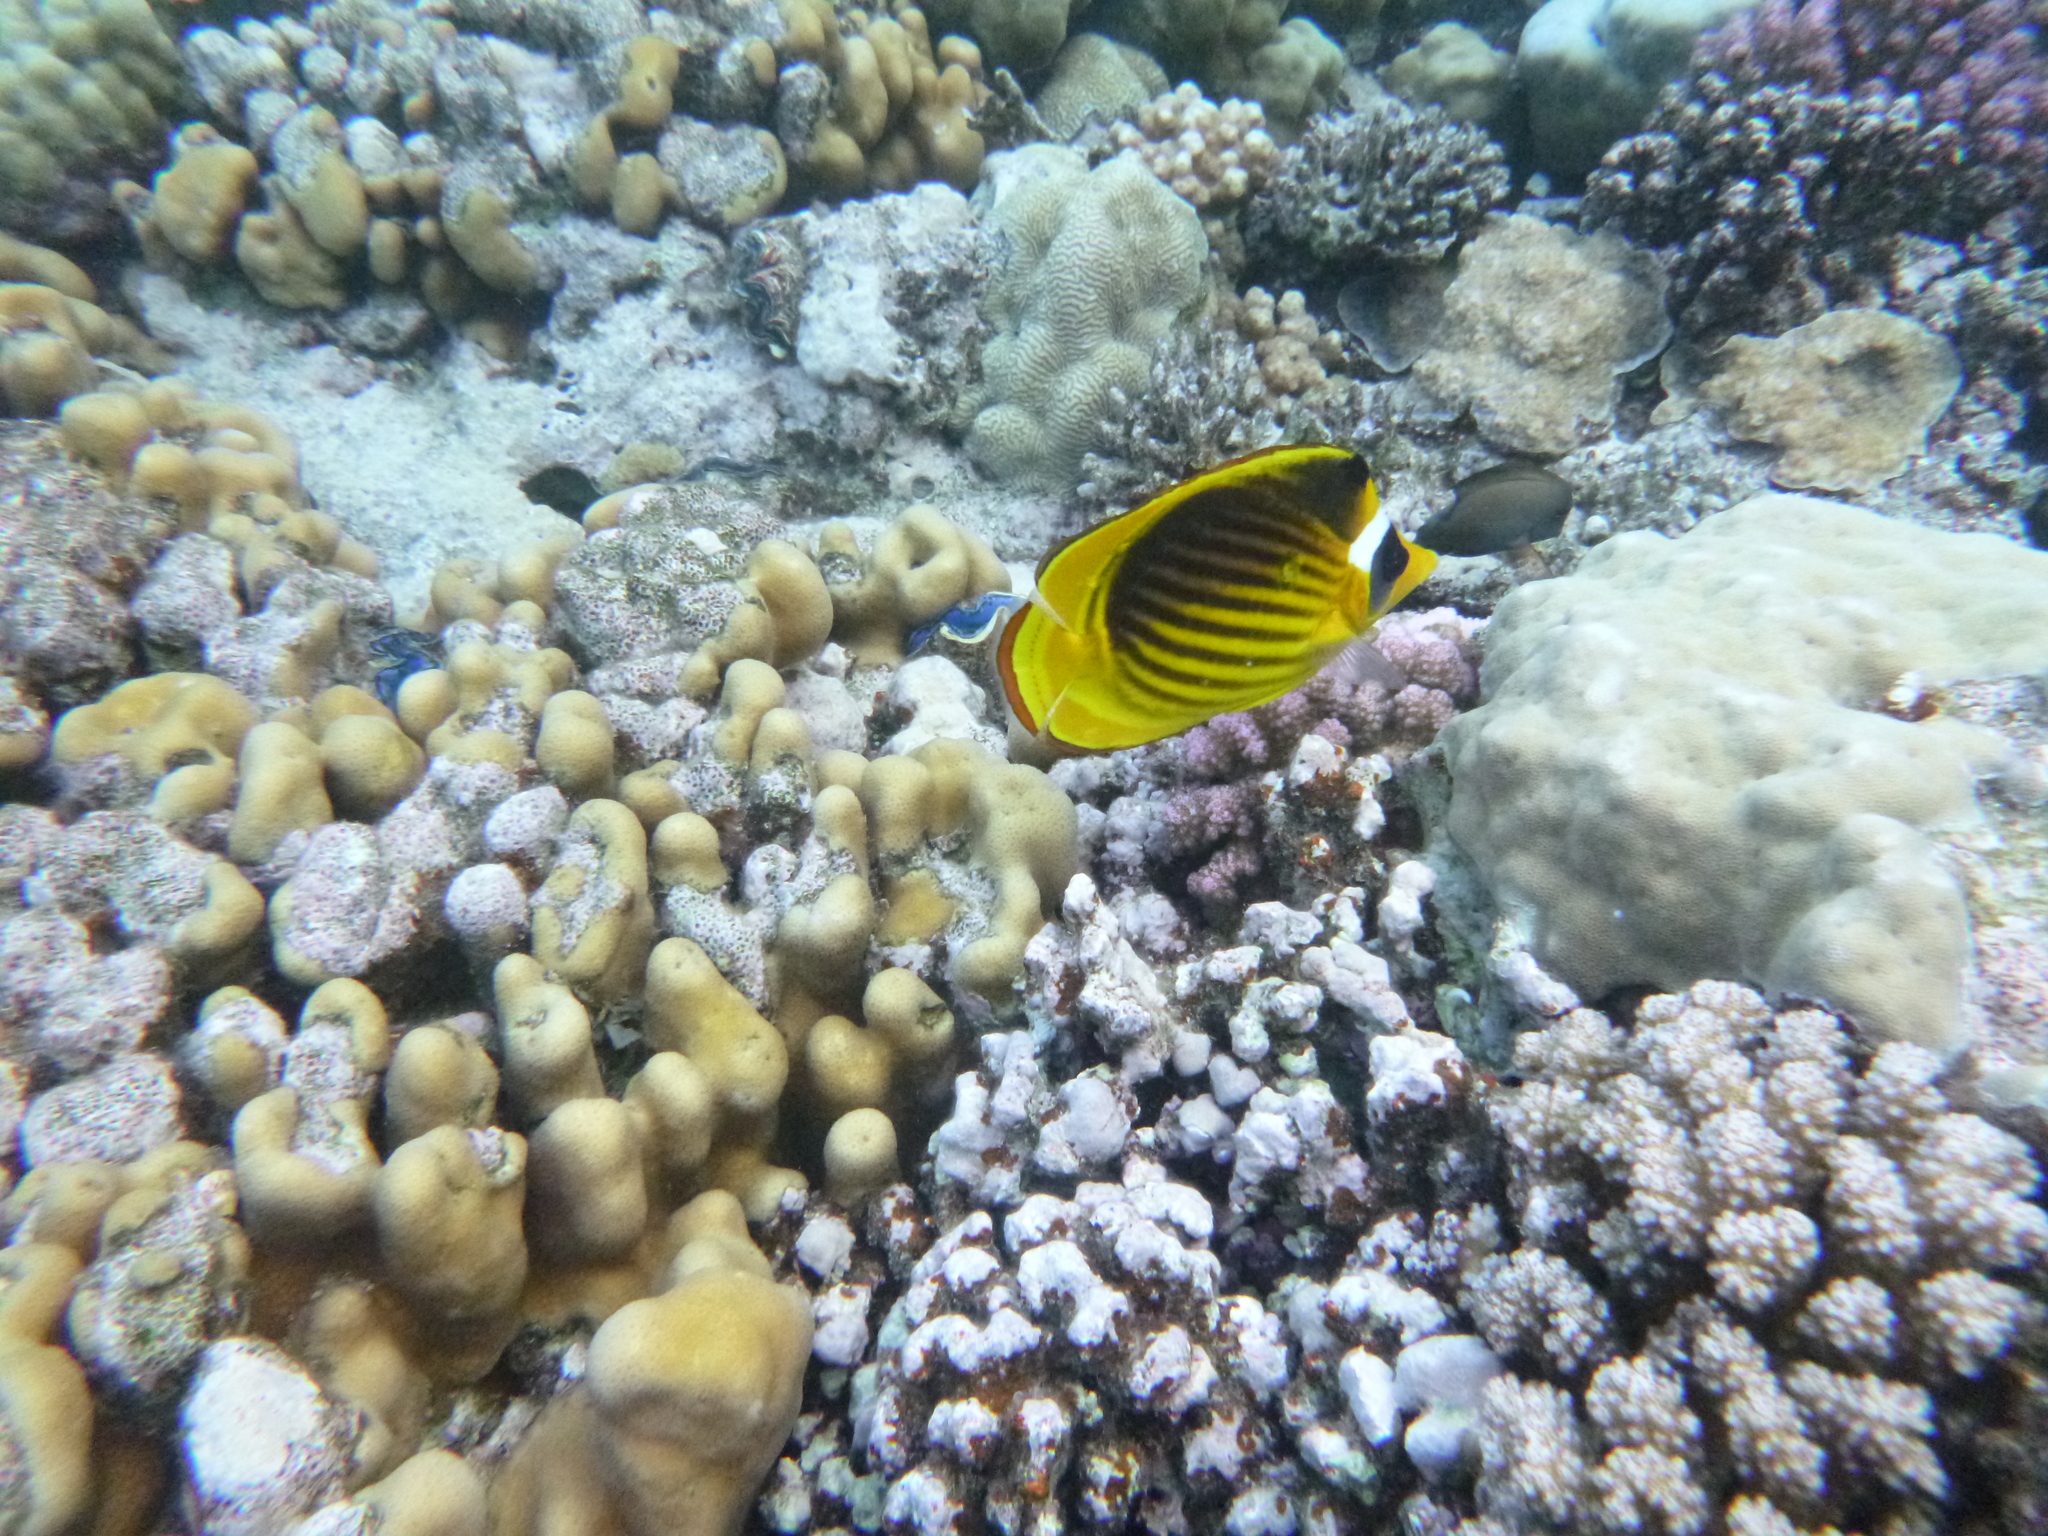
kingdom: Animalia
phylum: Chordata
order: Perciformes
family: Chaetodontidae
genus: Chaetodon
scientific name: Chaetodon fasciatus
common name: Diagonal butterflyfish
